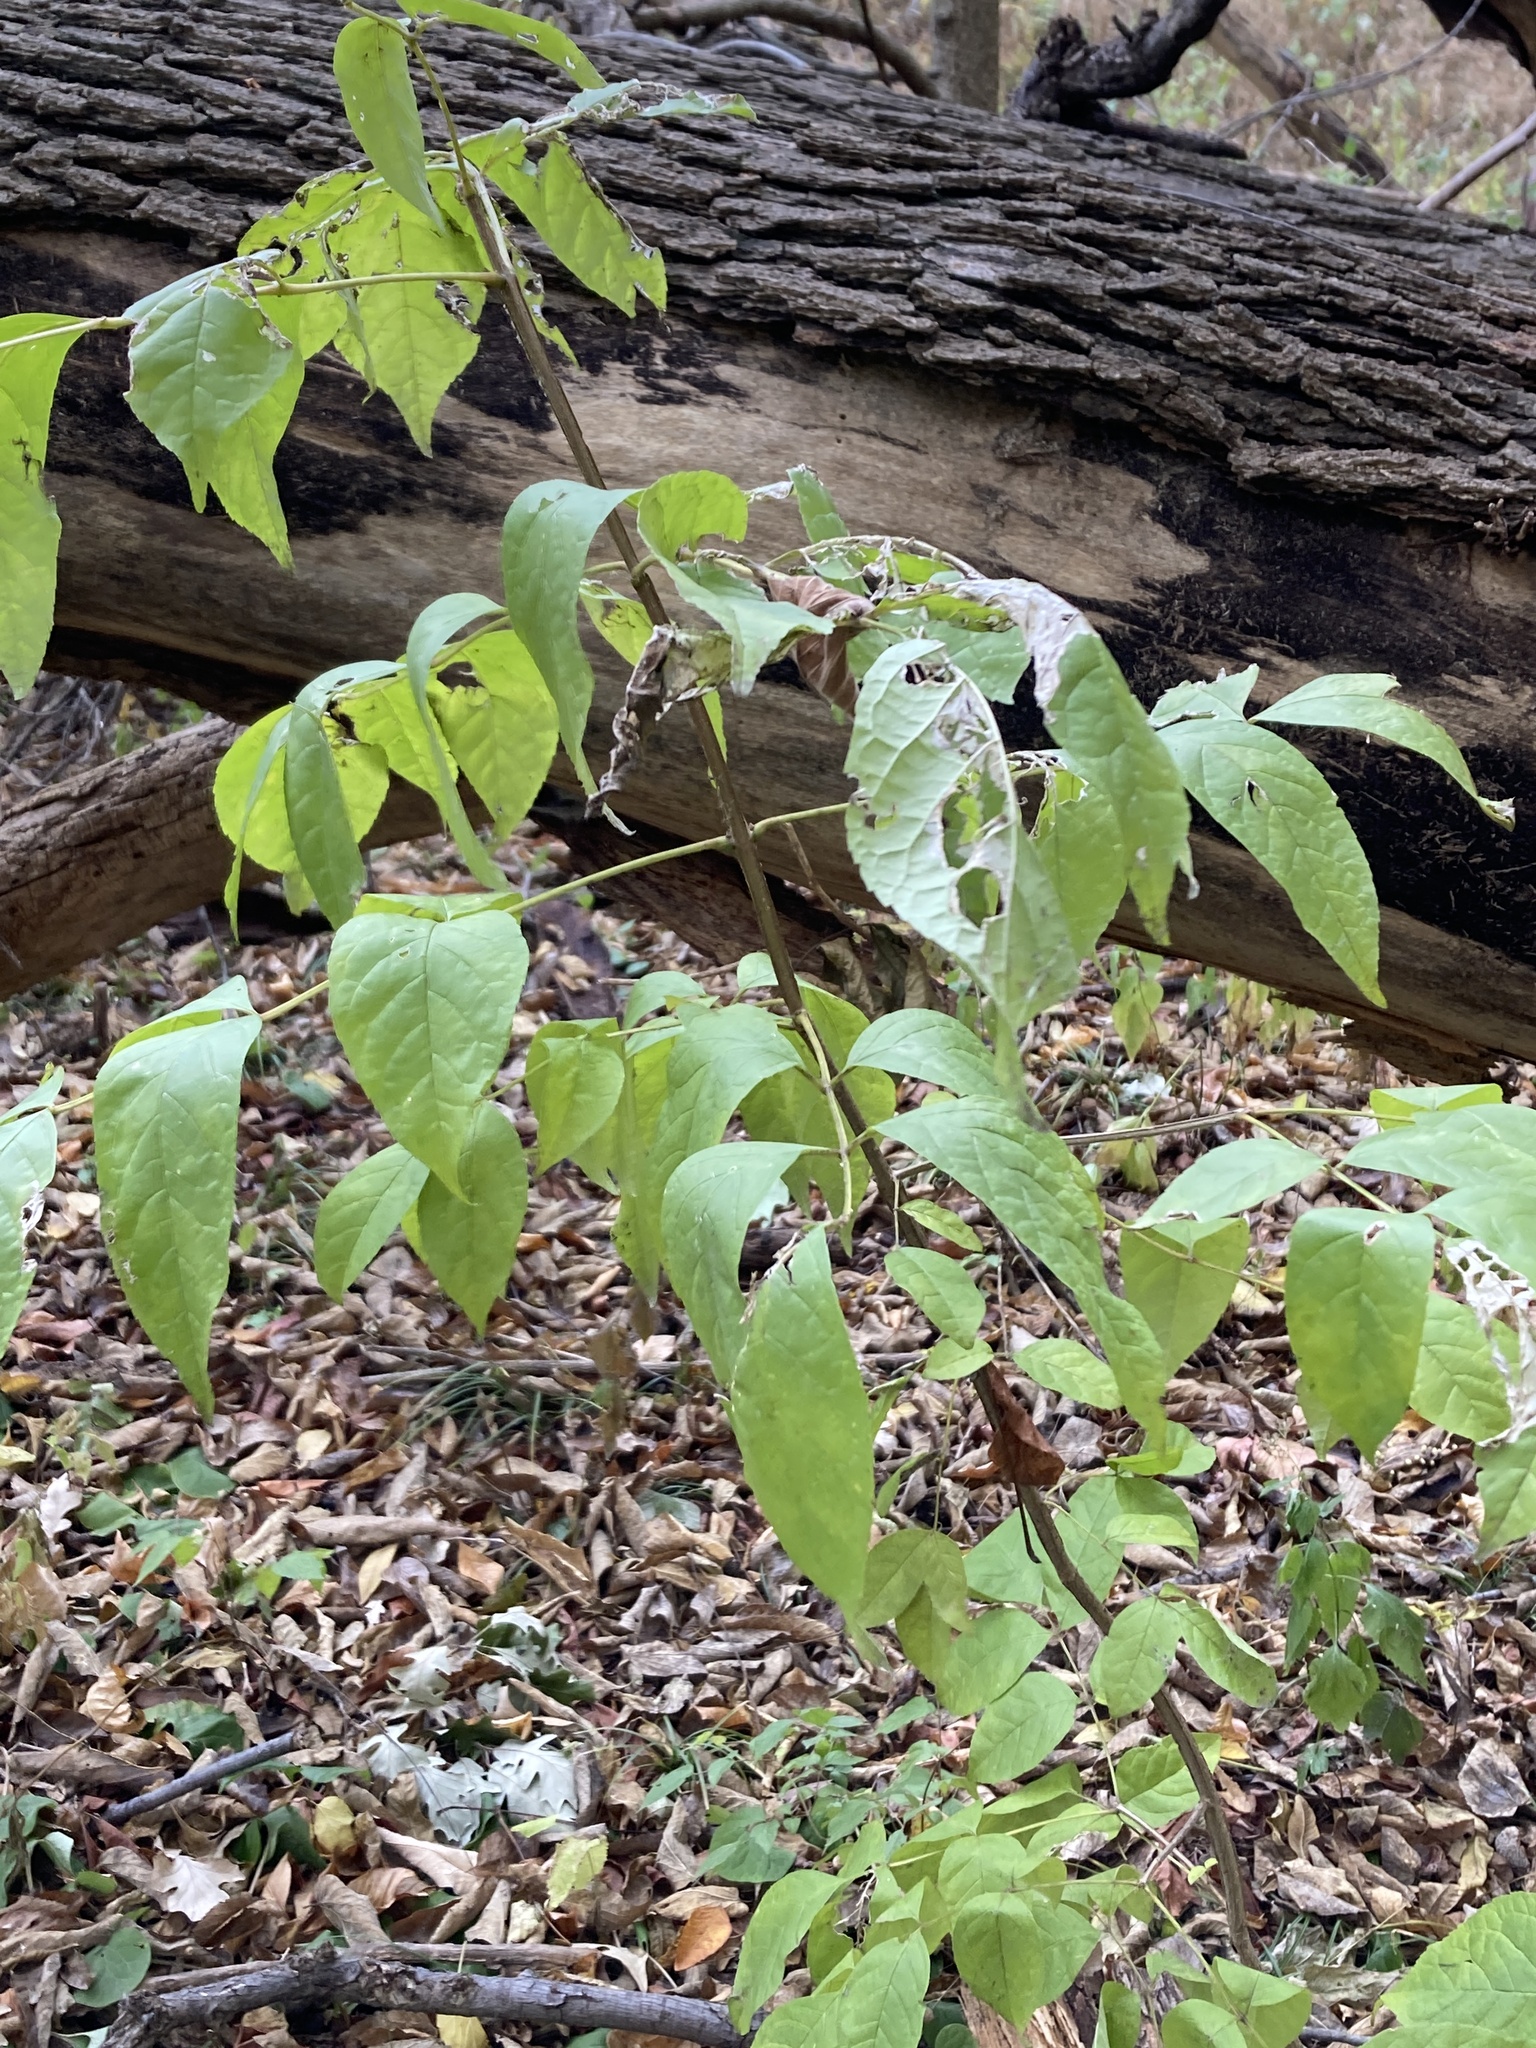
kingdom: Plantae
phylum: Tracheophyta
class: Magnoliopsida
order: Lamiales
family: Oleaceae
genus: Fraxinus
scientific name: Fraxinus quadrangulata
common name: Blue ash
